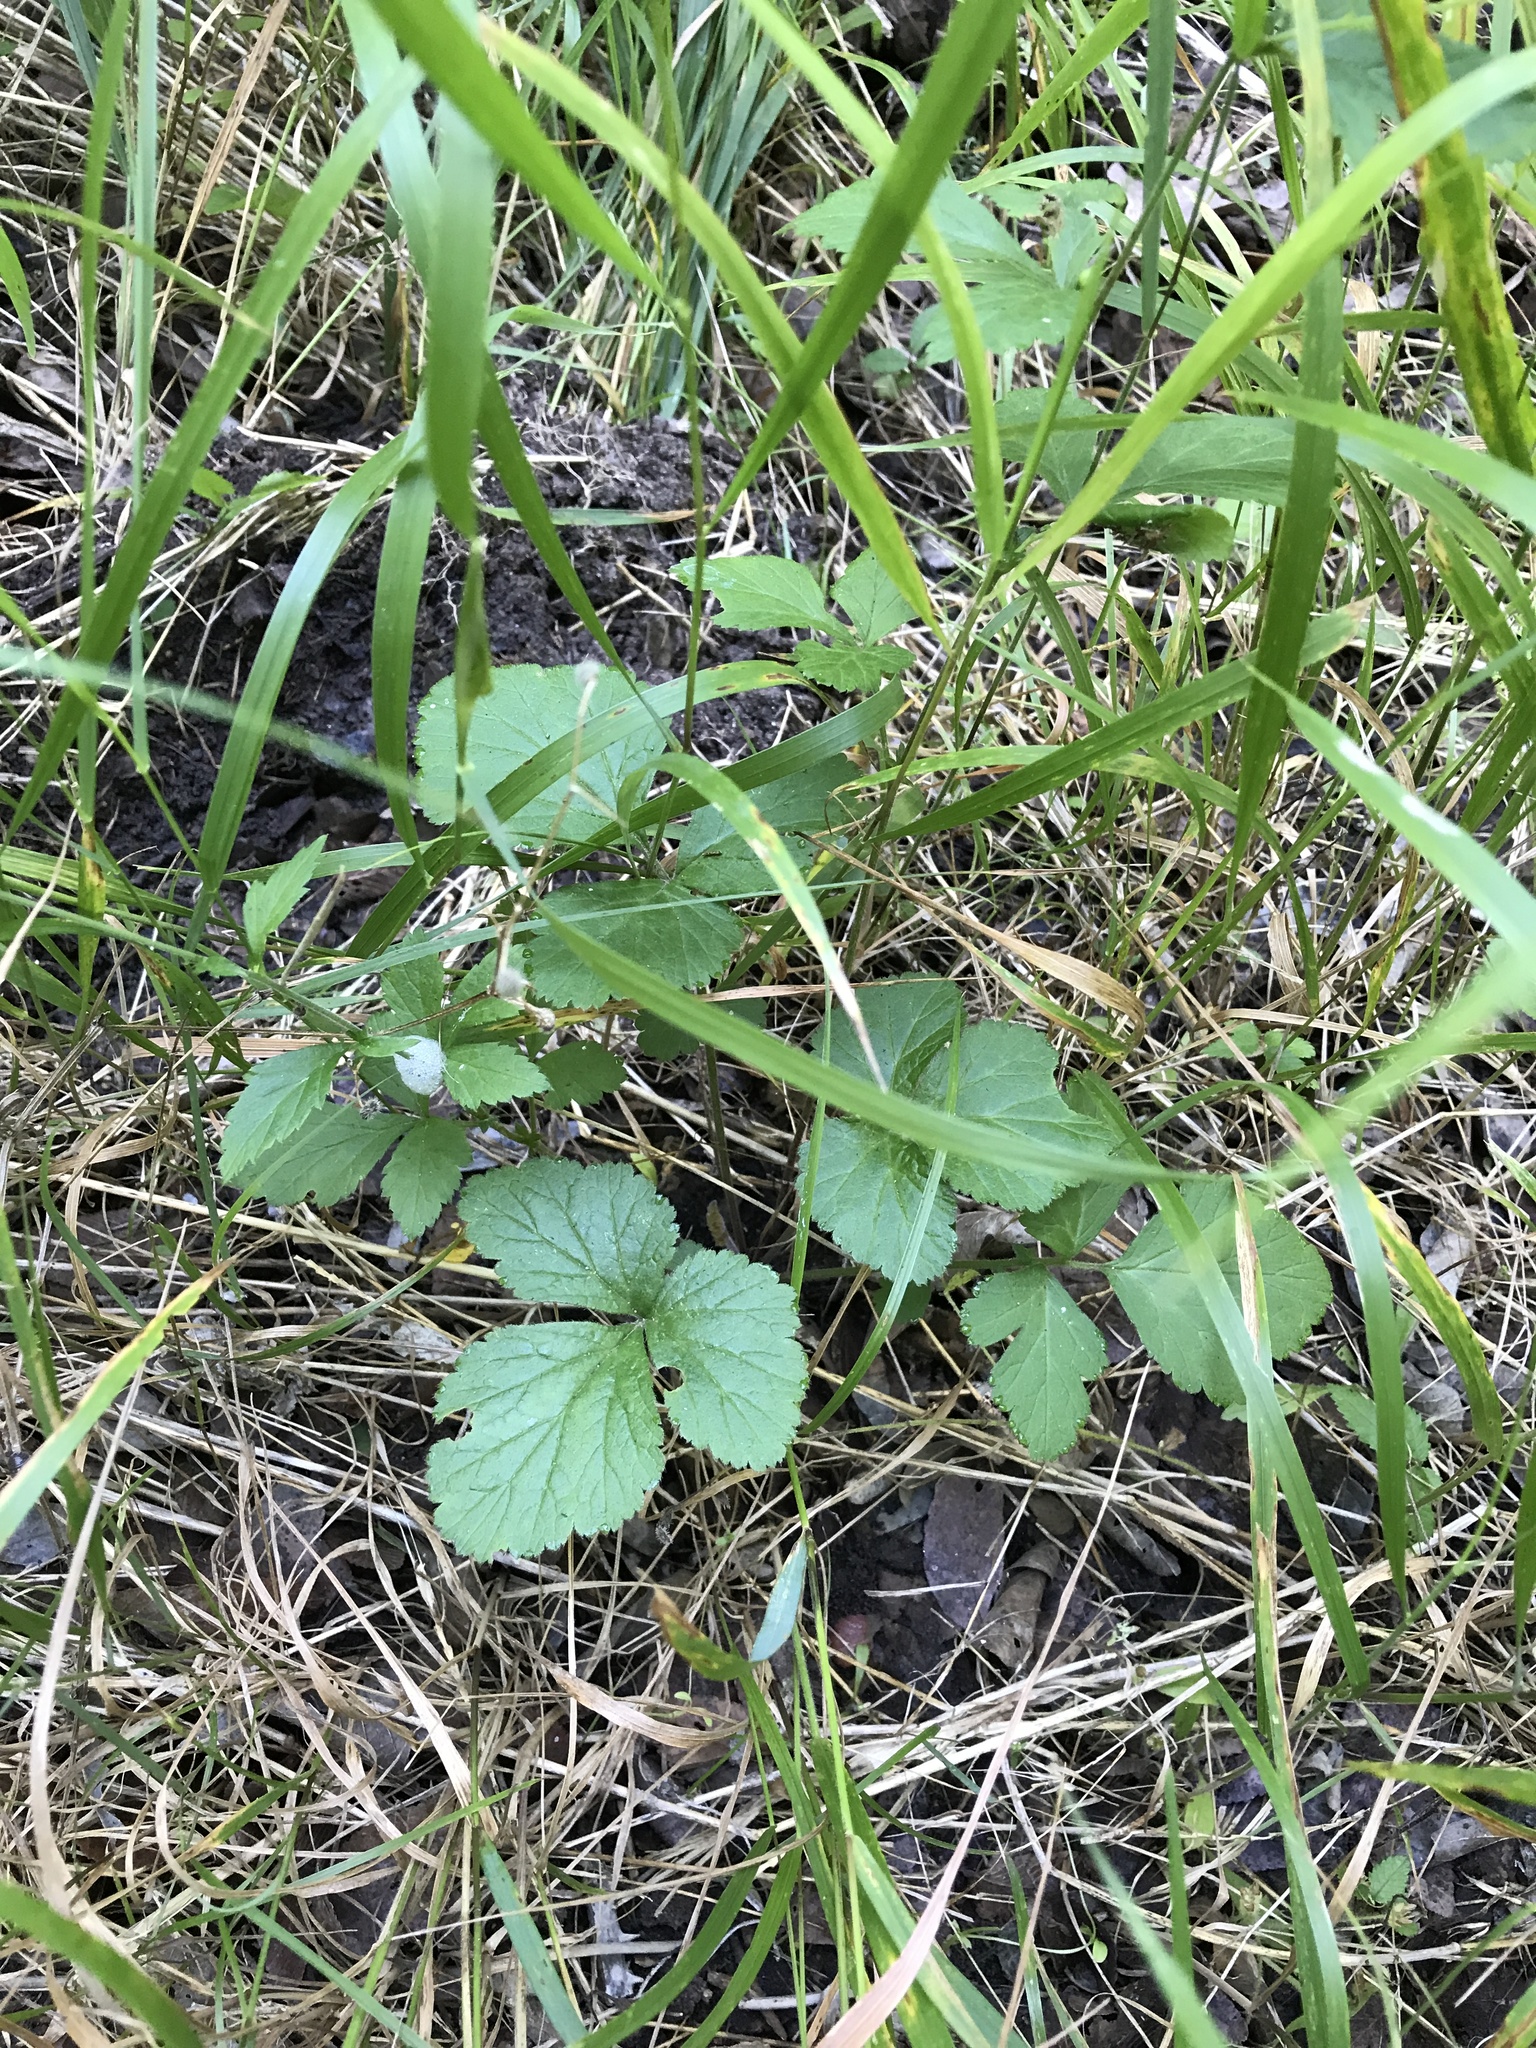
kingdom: Plantae
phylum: Tracheophyta
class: Magnoliopsida
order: Rosales
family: Rosaceae
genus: Geum
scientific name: Geum canadense
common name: White avens
